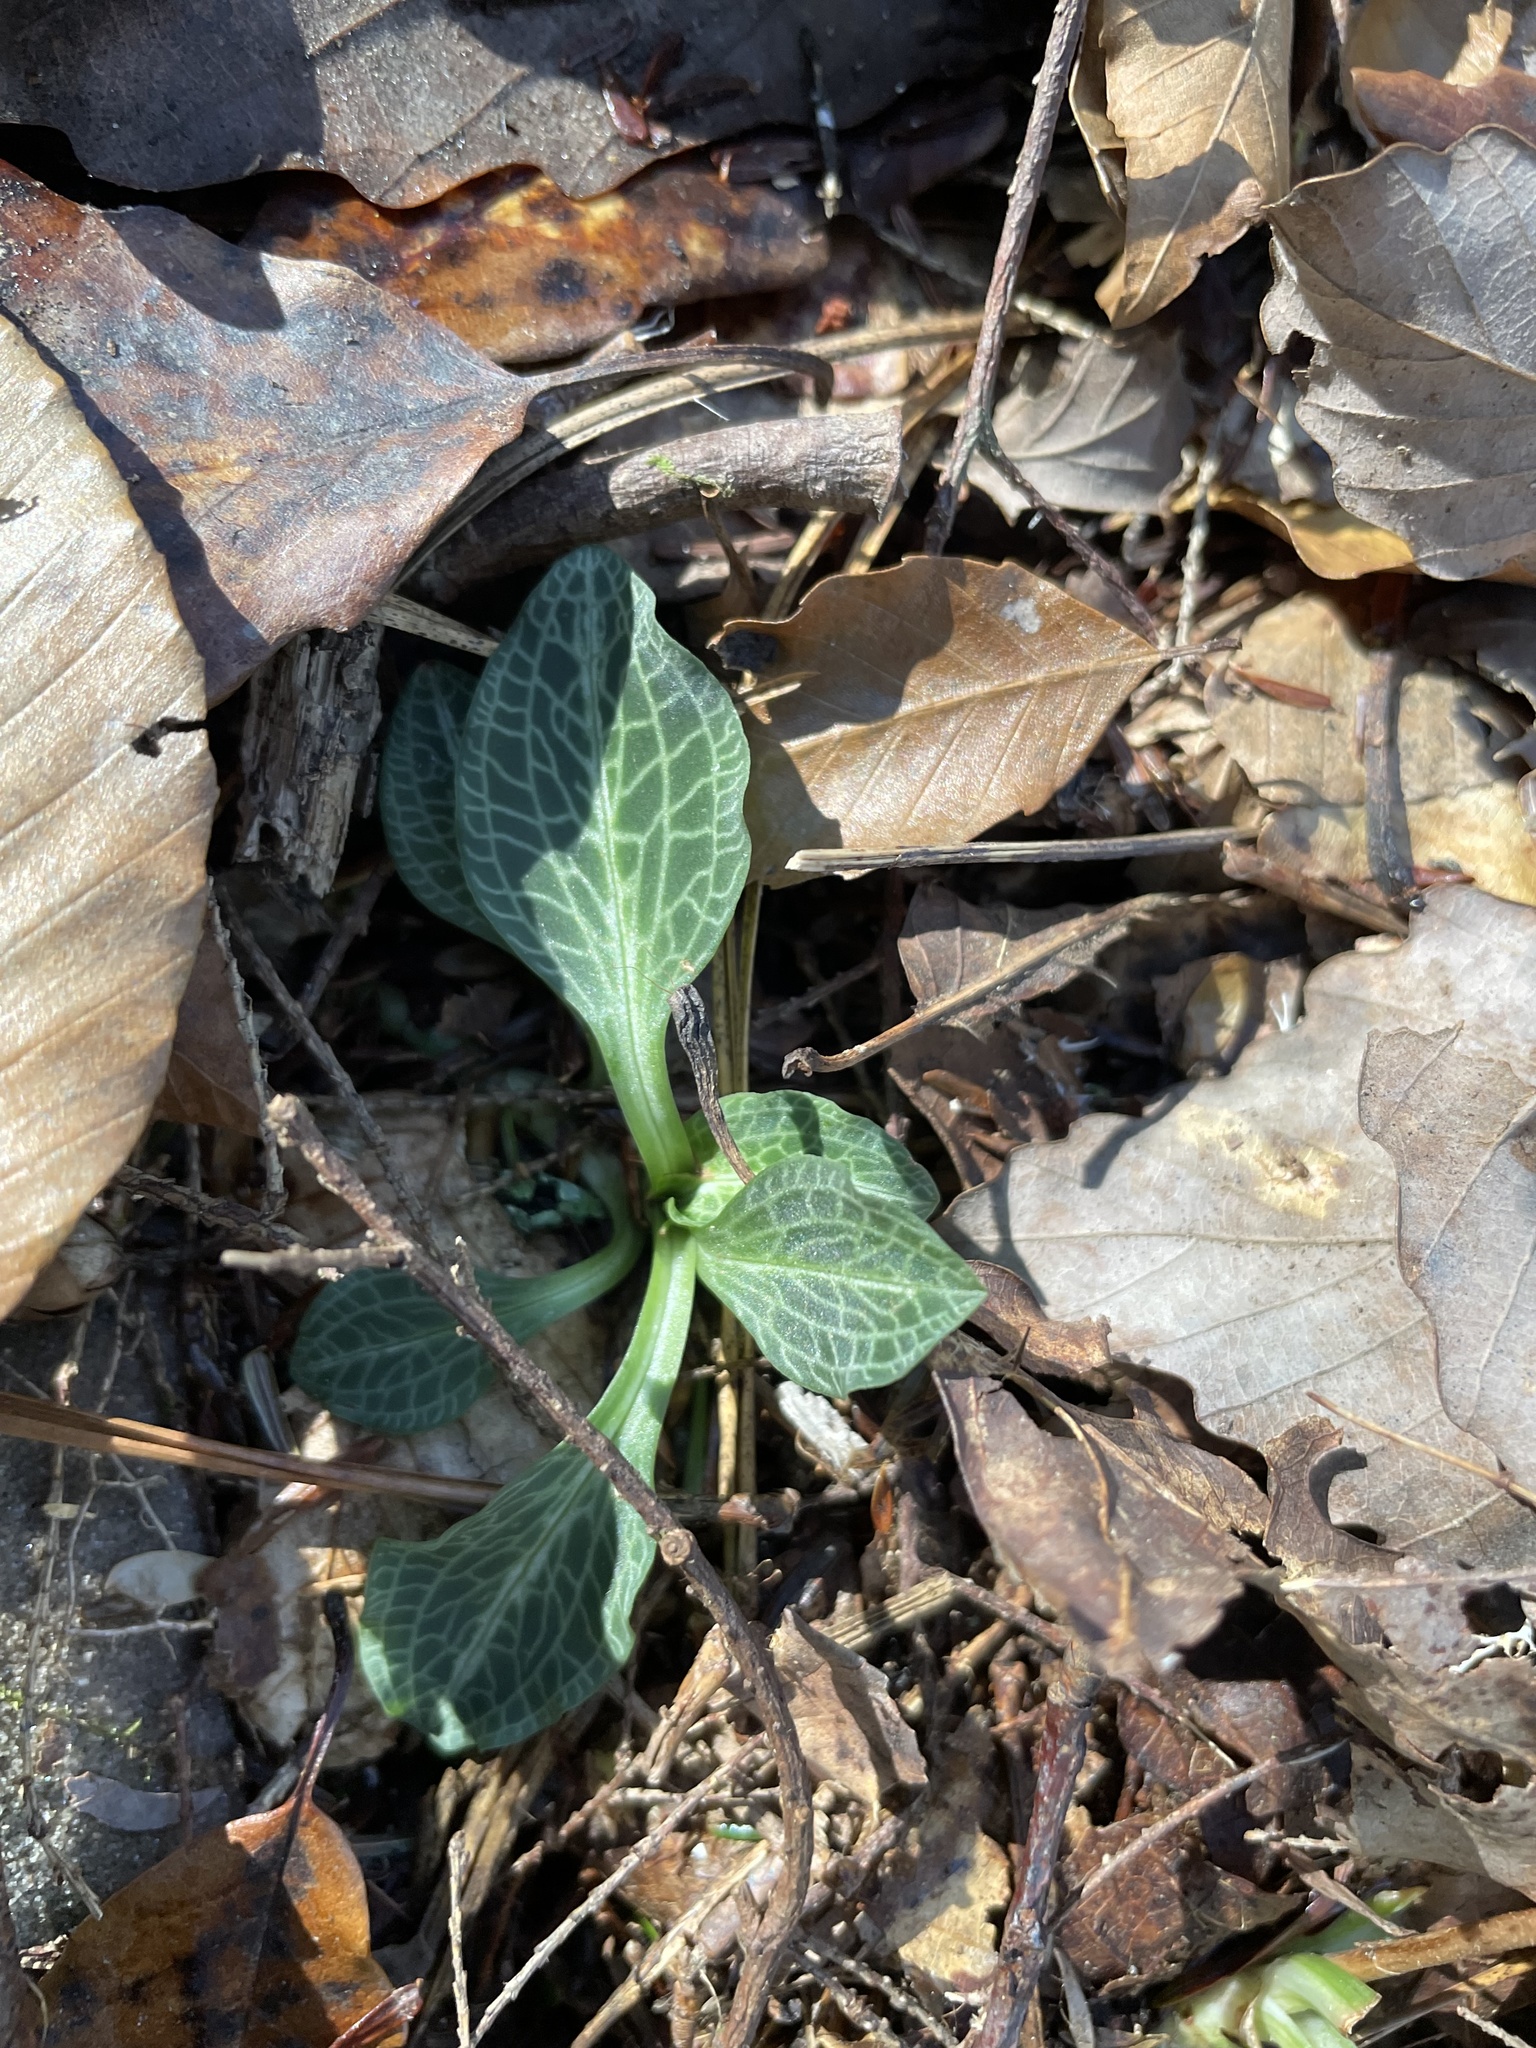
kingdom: Plantae
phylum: Tracheophyta
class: Liliopsida
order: Asparagales
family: Orchidaceae
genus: Goodyera
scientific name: Goodyera pubescens
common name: Downy rattlesnake-plantain
